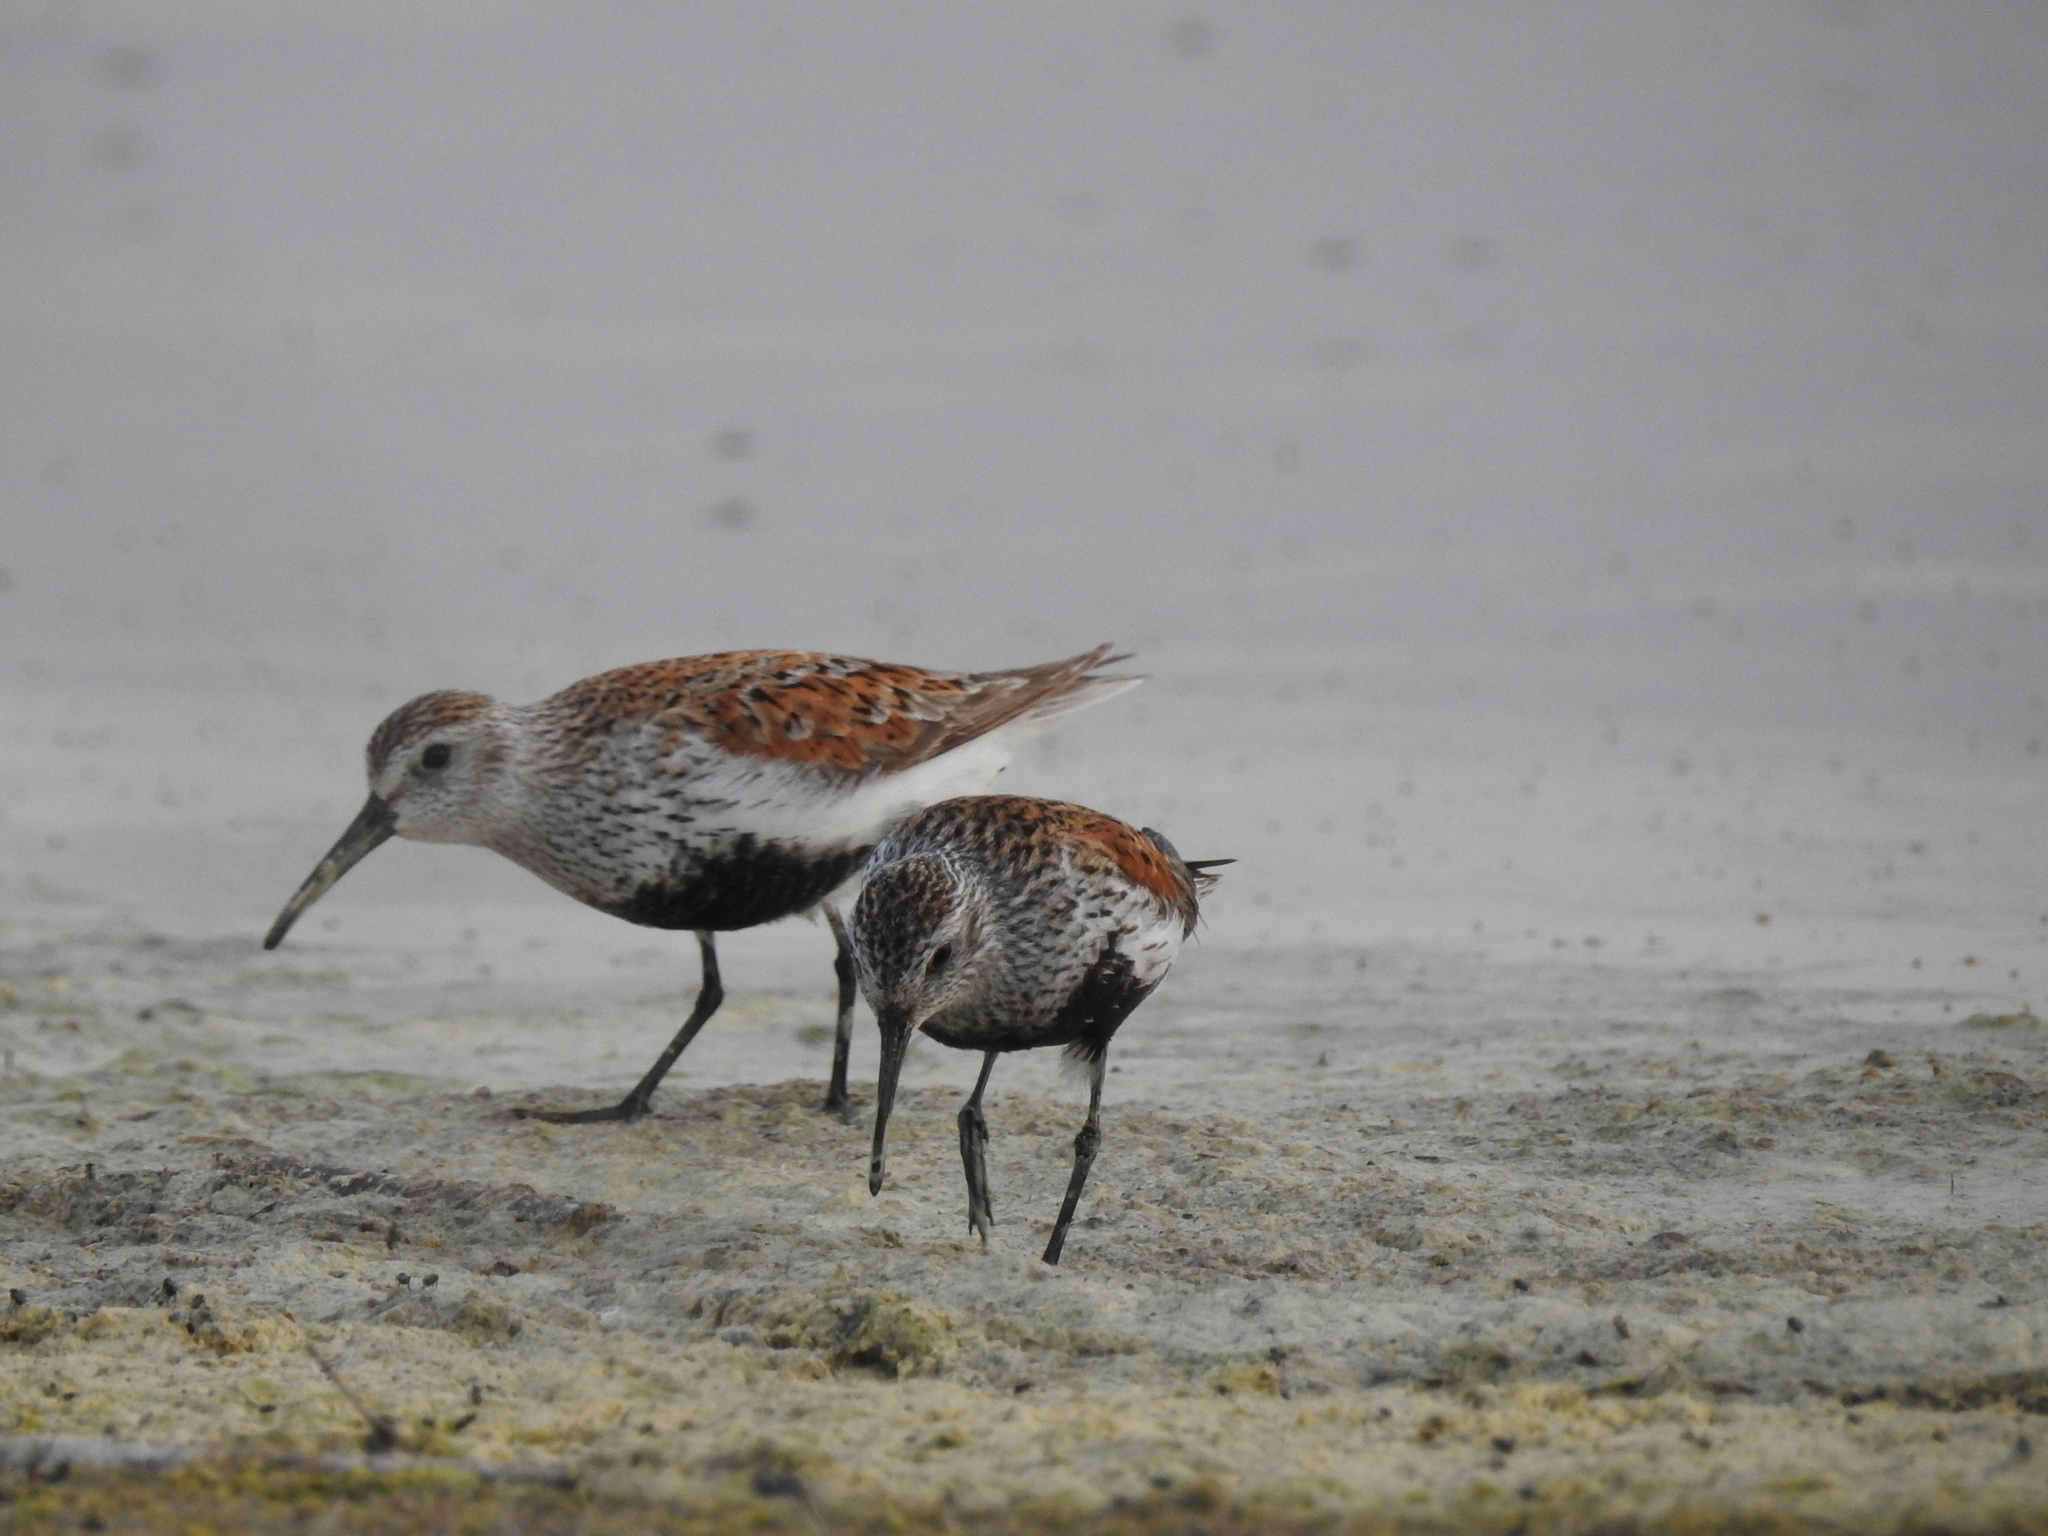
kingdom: Animalia
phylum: Chordata
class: Aves
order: Charadriiformes
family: Scolopacidae
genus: Calidris
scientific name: Calidris alpina
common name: Dunlin
